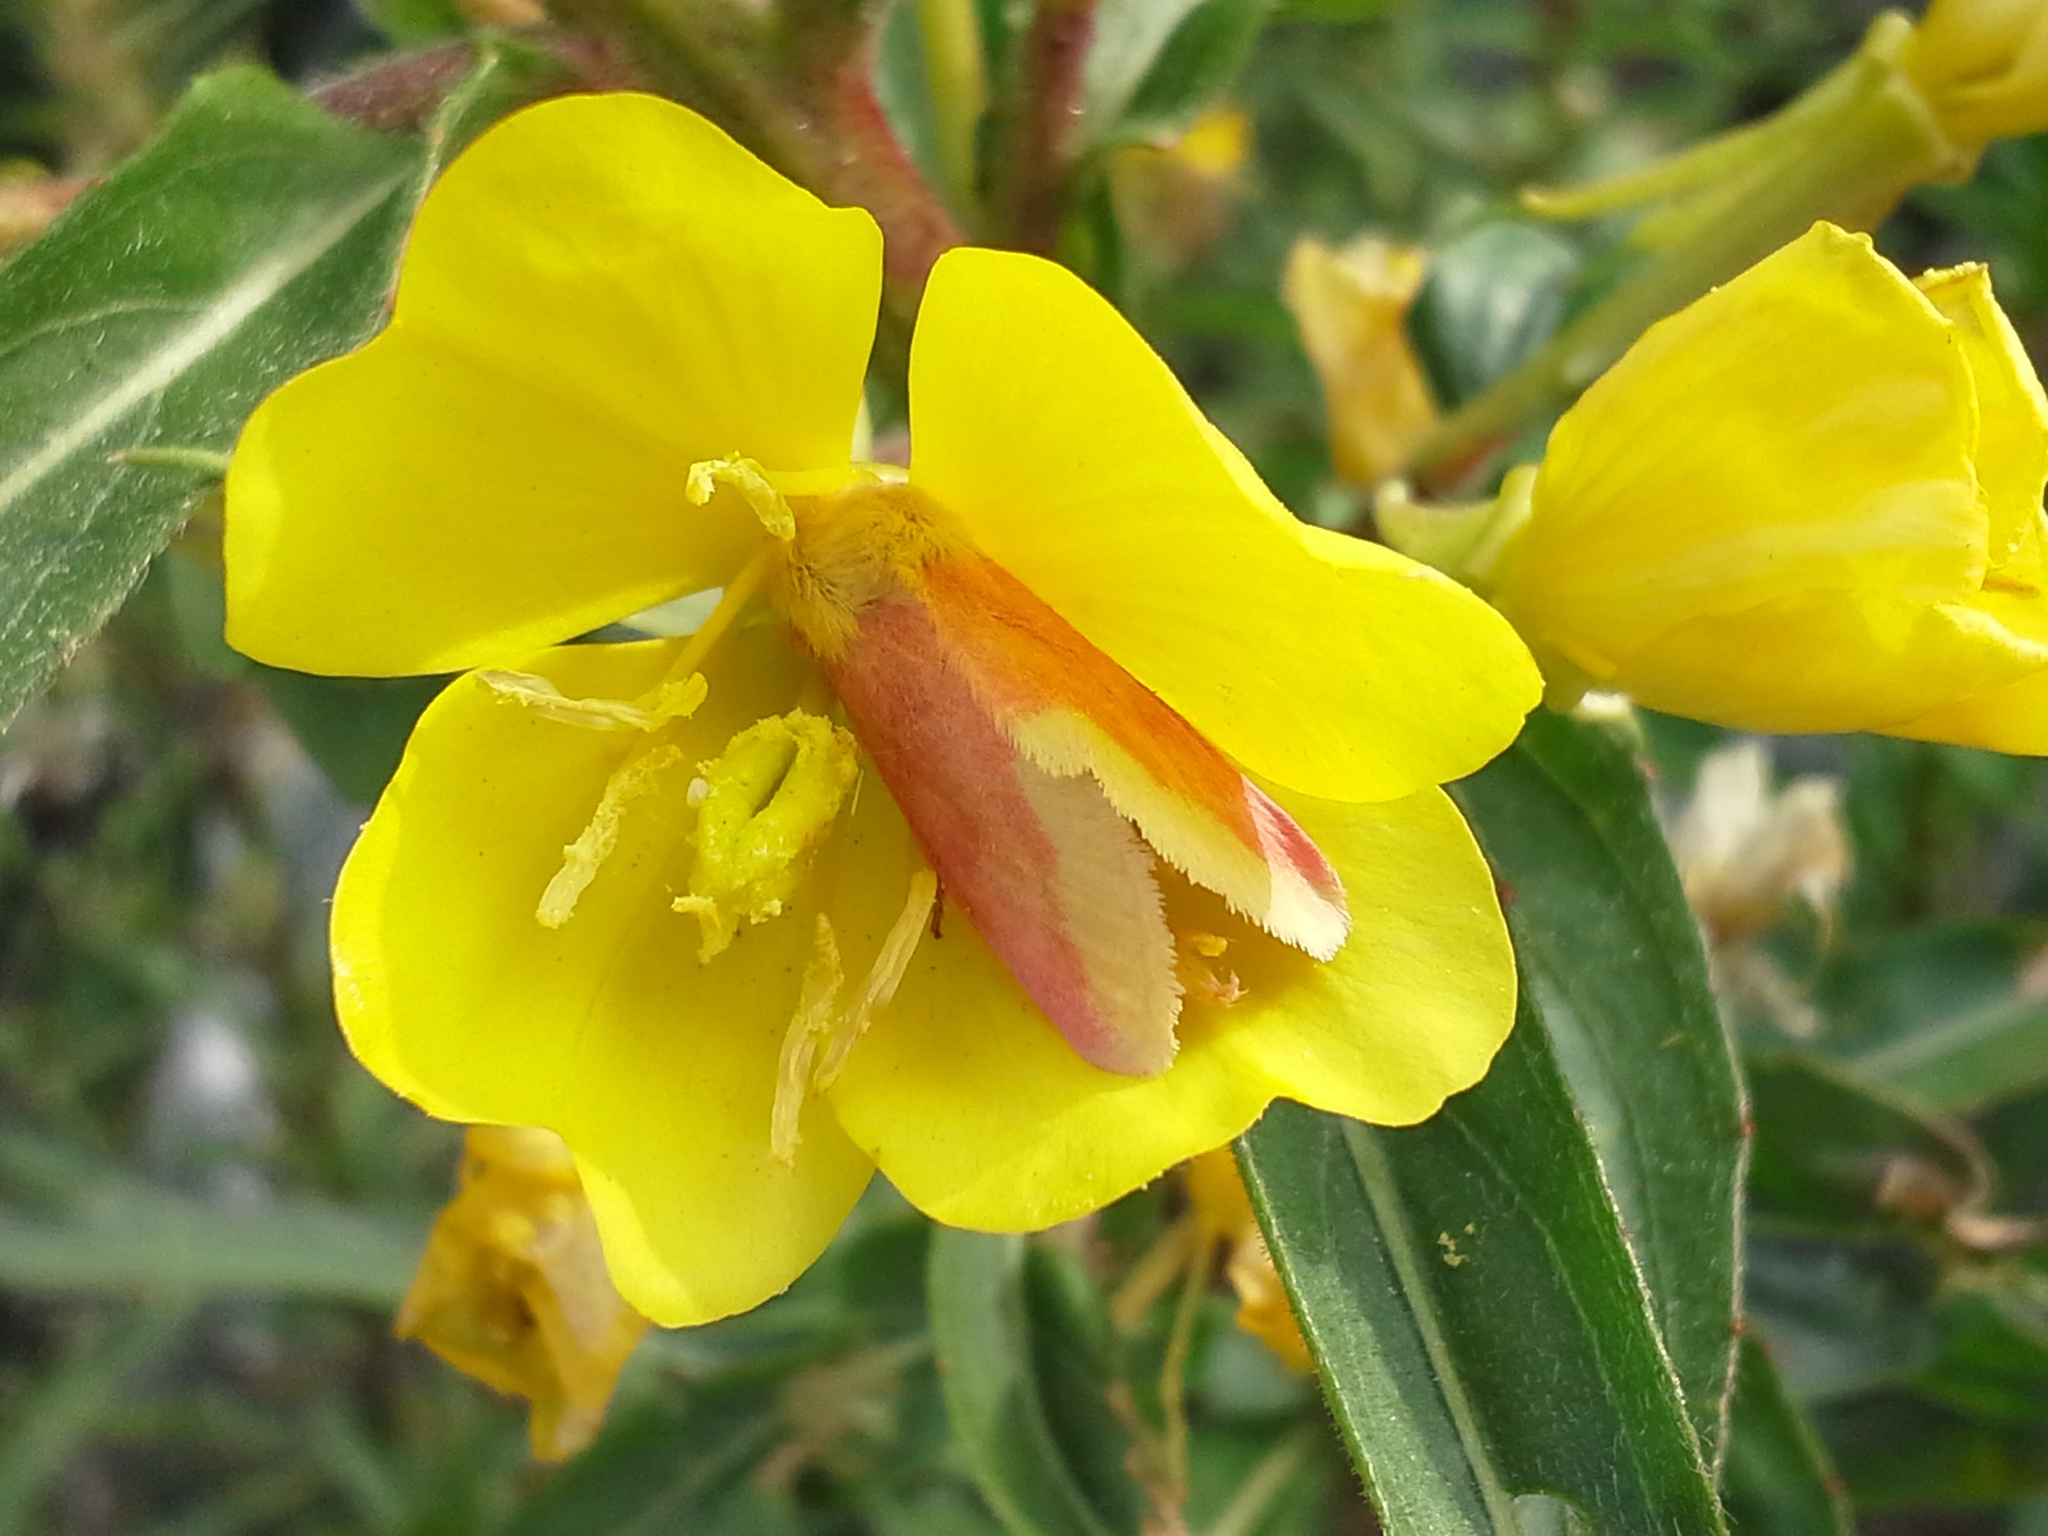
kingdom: Animalia
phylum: Arthropoda
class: Insecta
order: Lepidoptera
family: Noctuidae
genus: Schinia
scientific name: Schinia florida
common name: Primrose moth
